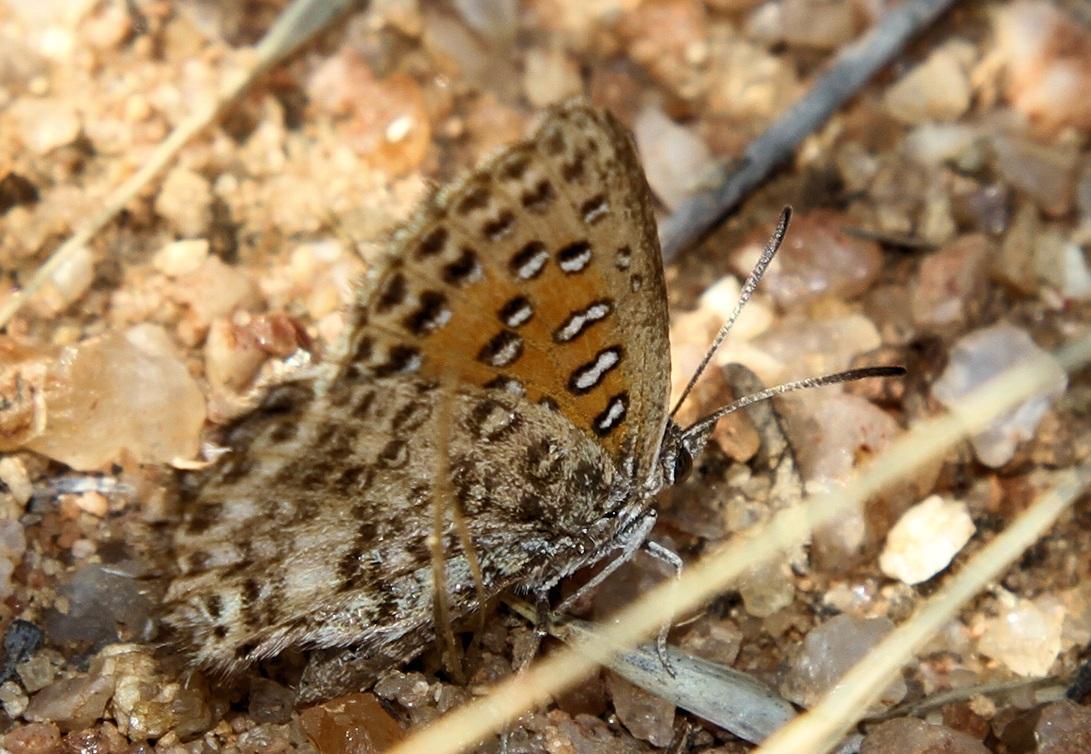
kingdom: Animalia
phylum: Arthropoda
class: Insecta
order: Lepidoptera
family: Lycaenidae
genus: Aloeides
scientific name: Aloeides damarensis
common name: Damara russet
